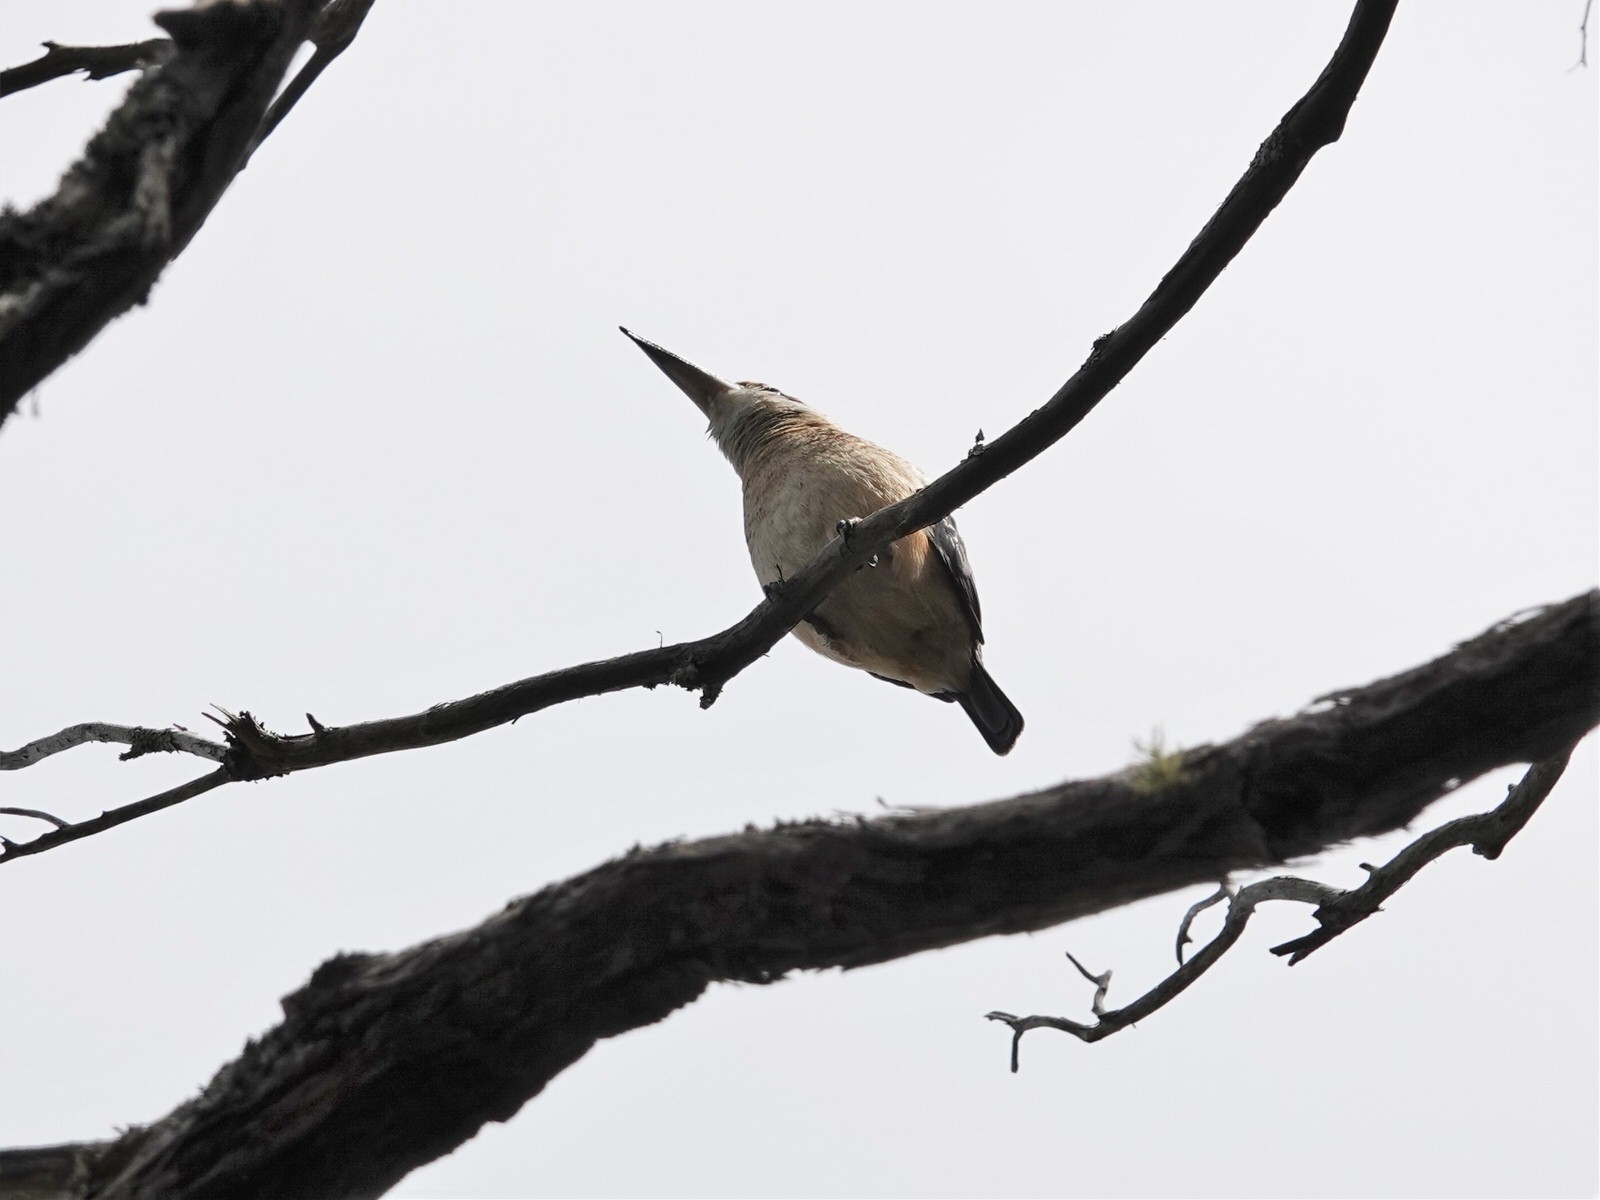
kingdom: Animalia
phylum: Chordata
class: Aves
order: Coraciiformes
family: Alcedinidae
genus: Todiramphus
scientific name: Todiramphus sanctus
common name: Sacred kingfisher
